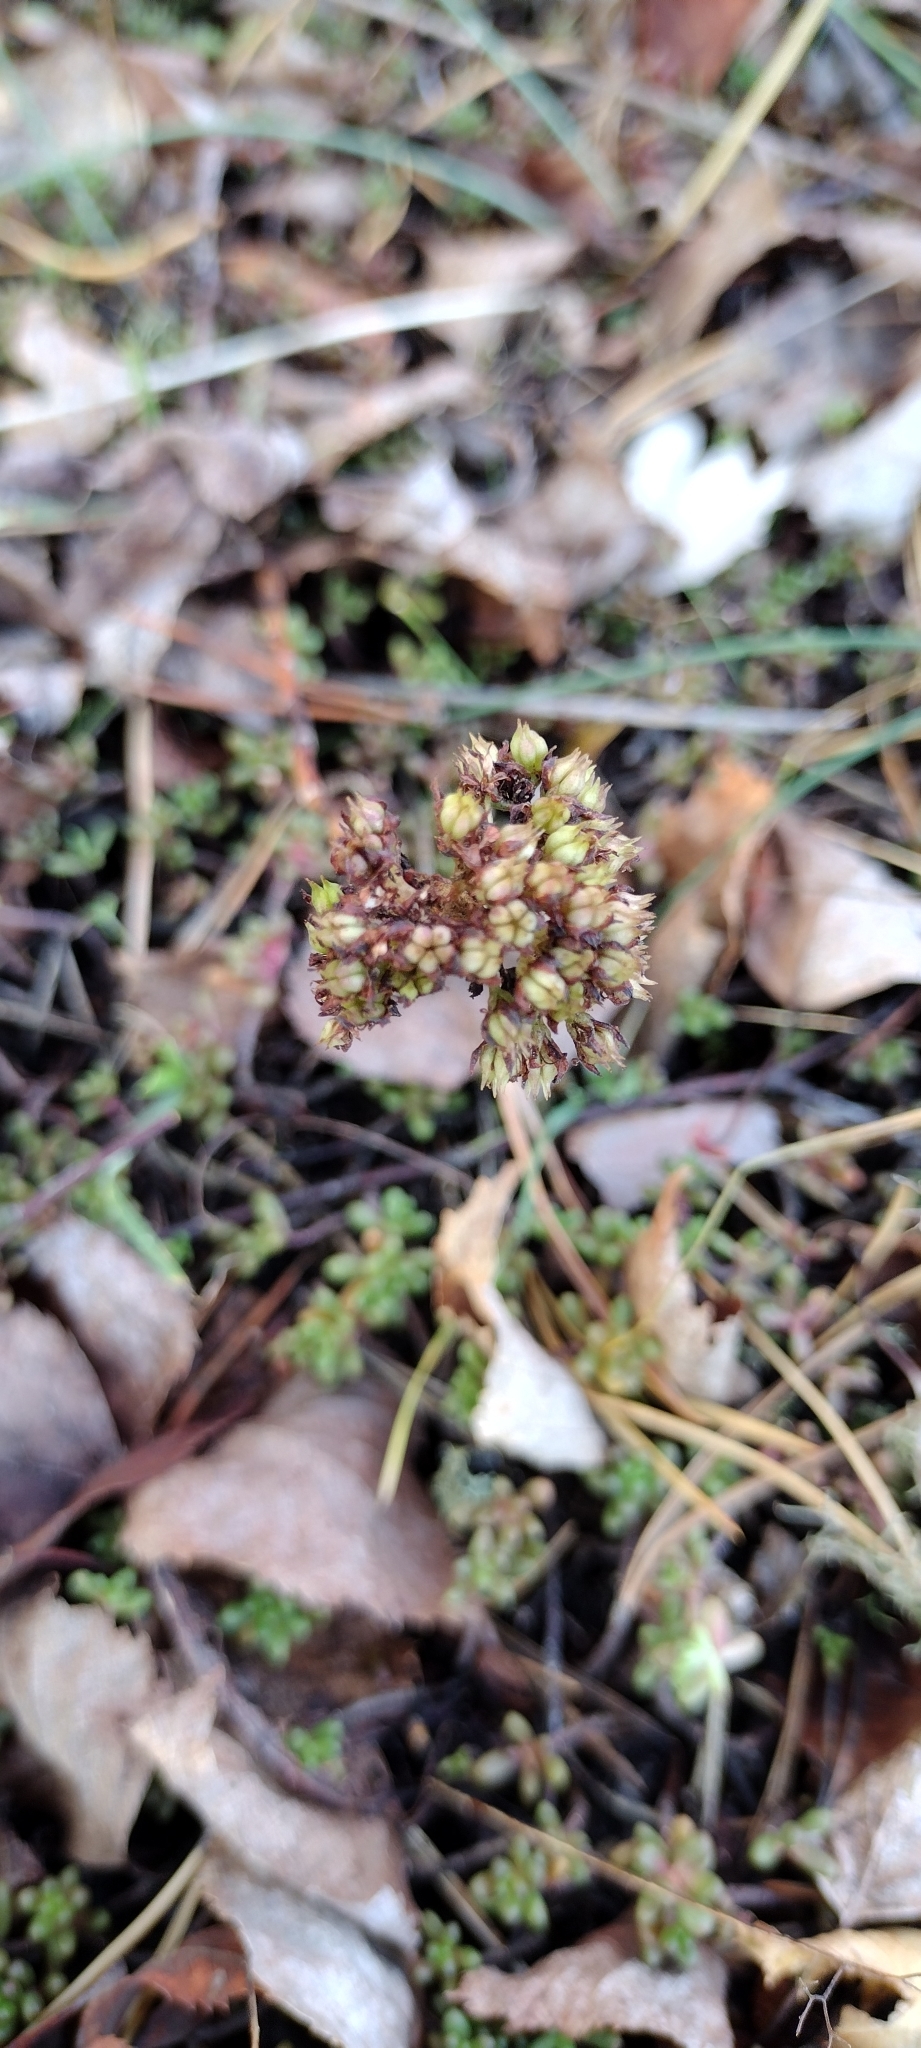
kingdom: Plantae
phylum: Tracheophyta
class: Magnoliopsida
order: Saxifragales
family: Crassulaceae
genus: Sedum
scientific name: Sedum album
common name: White stonecrop
